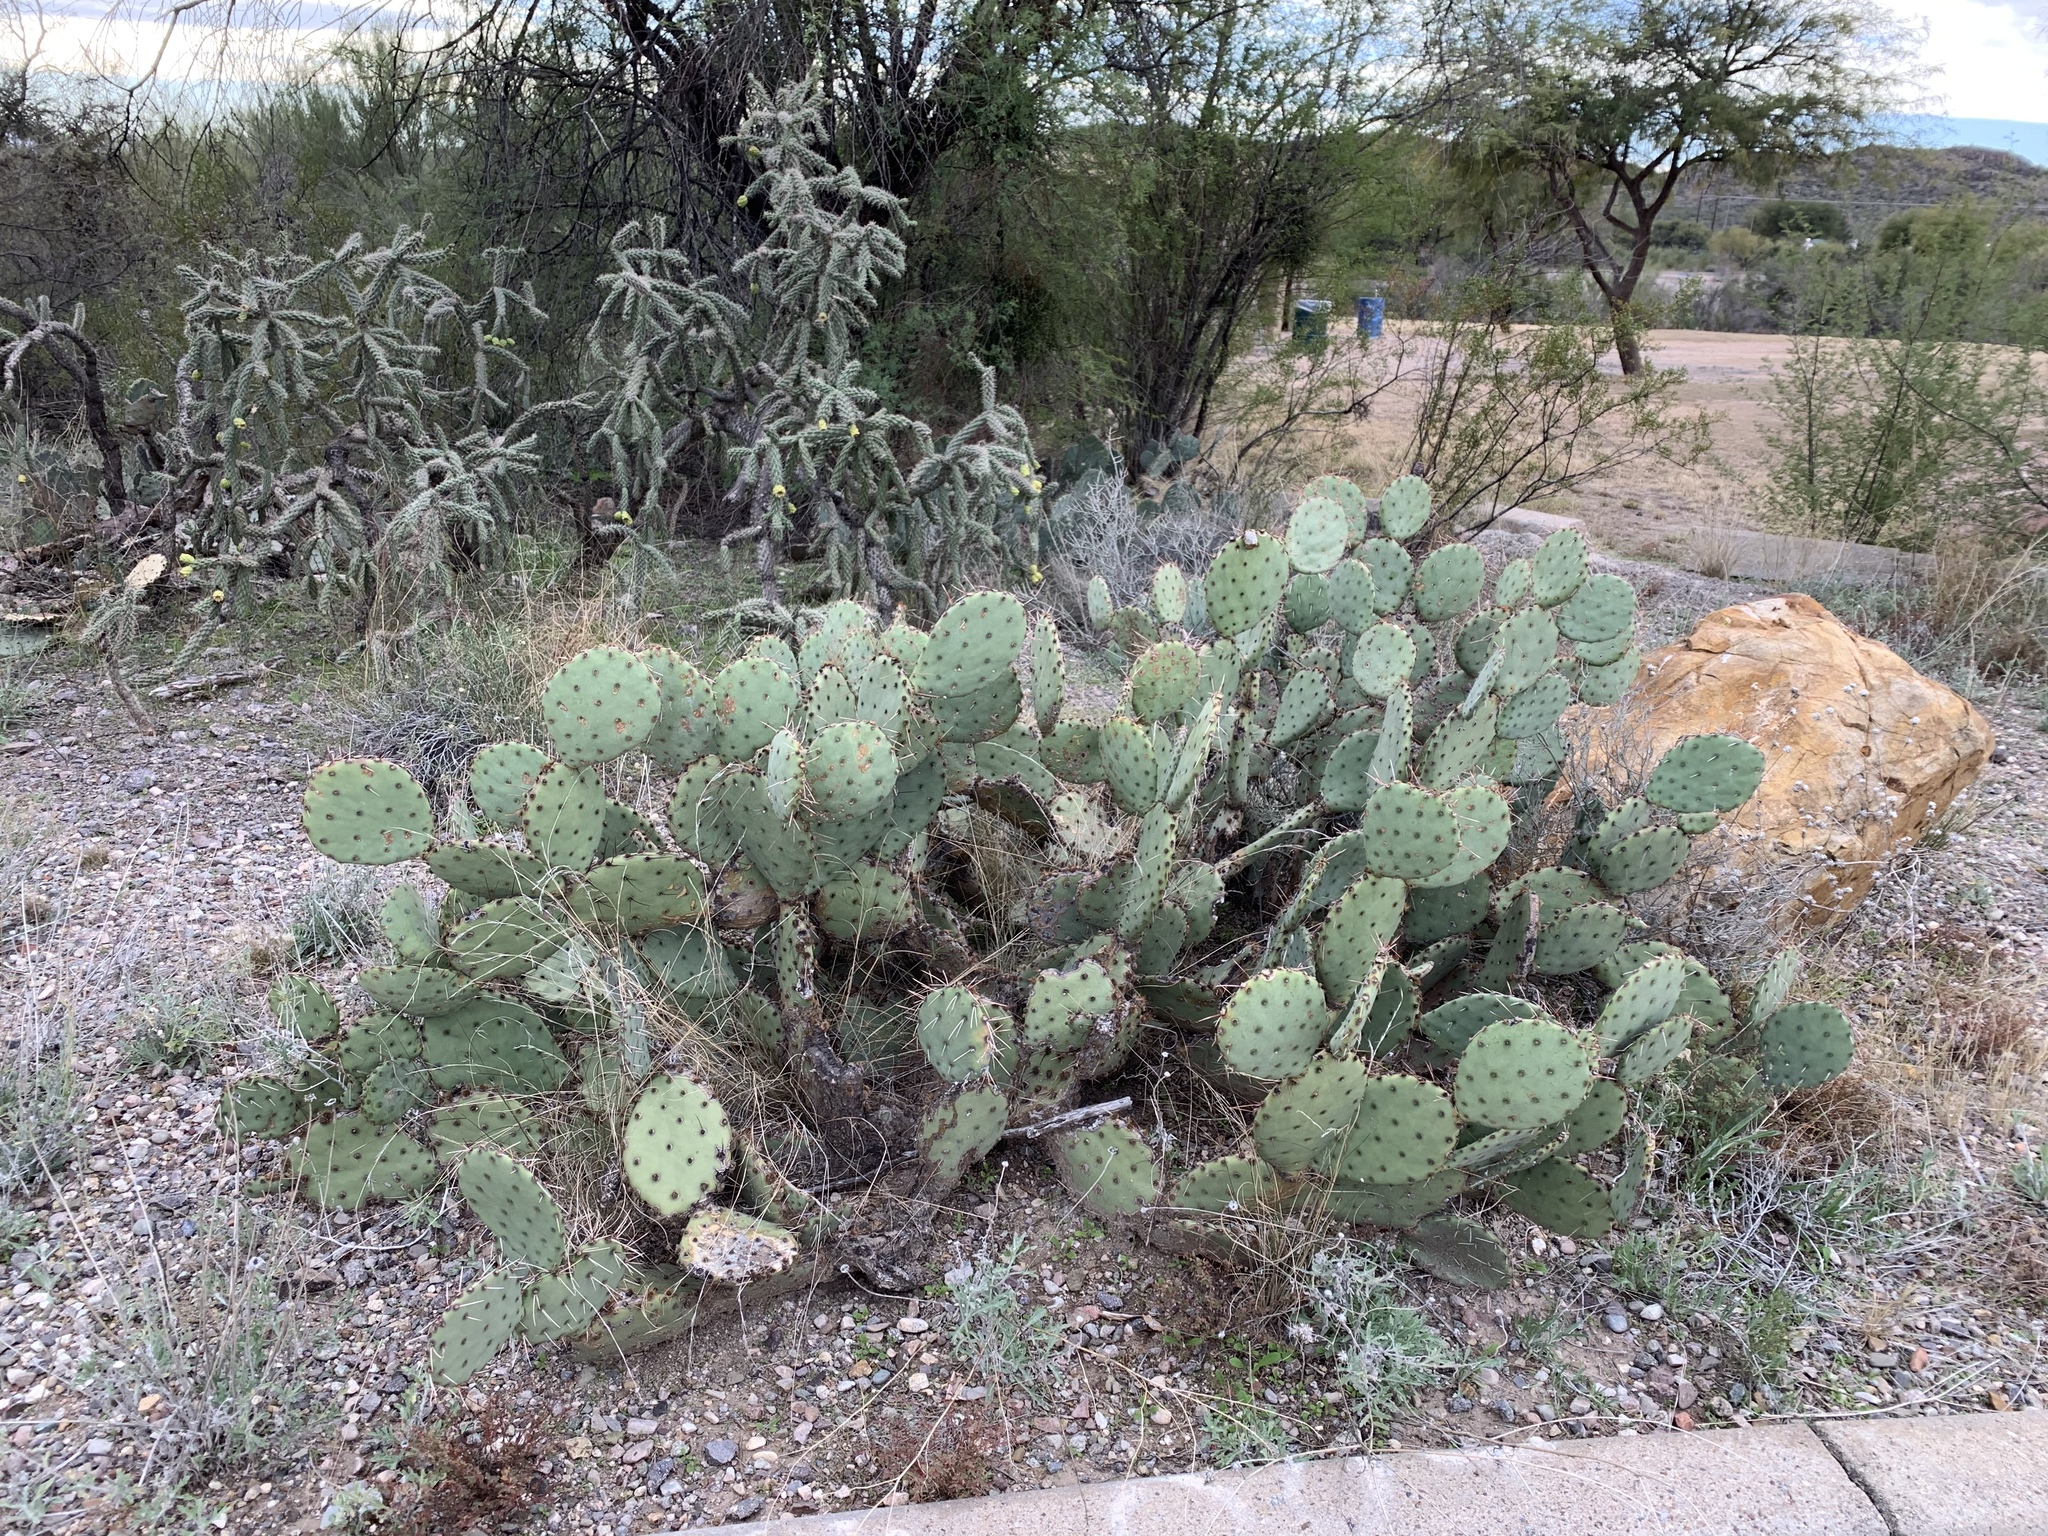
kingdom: Plantae
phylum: Tracheophyta
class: Magnoliopsida
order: Caryophyllales
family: Cactaceae
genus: Opuntia
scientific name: Opuntia engelmannii
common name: Cactus-apple
